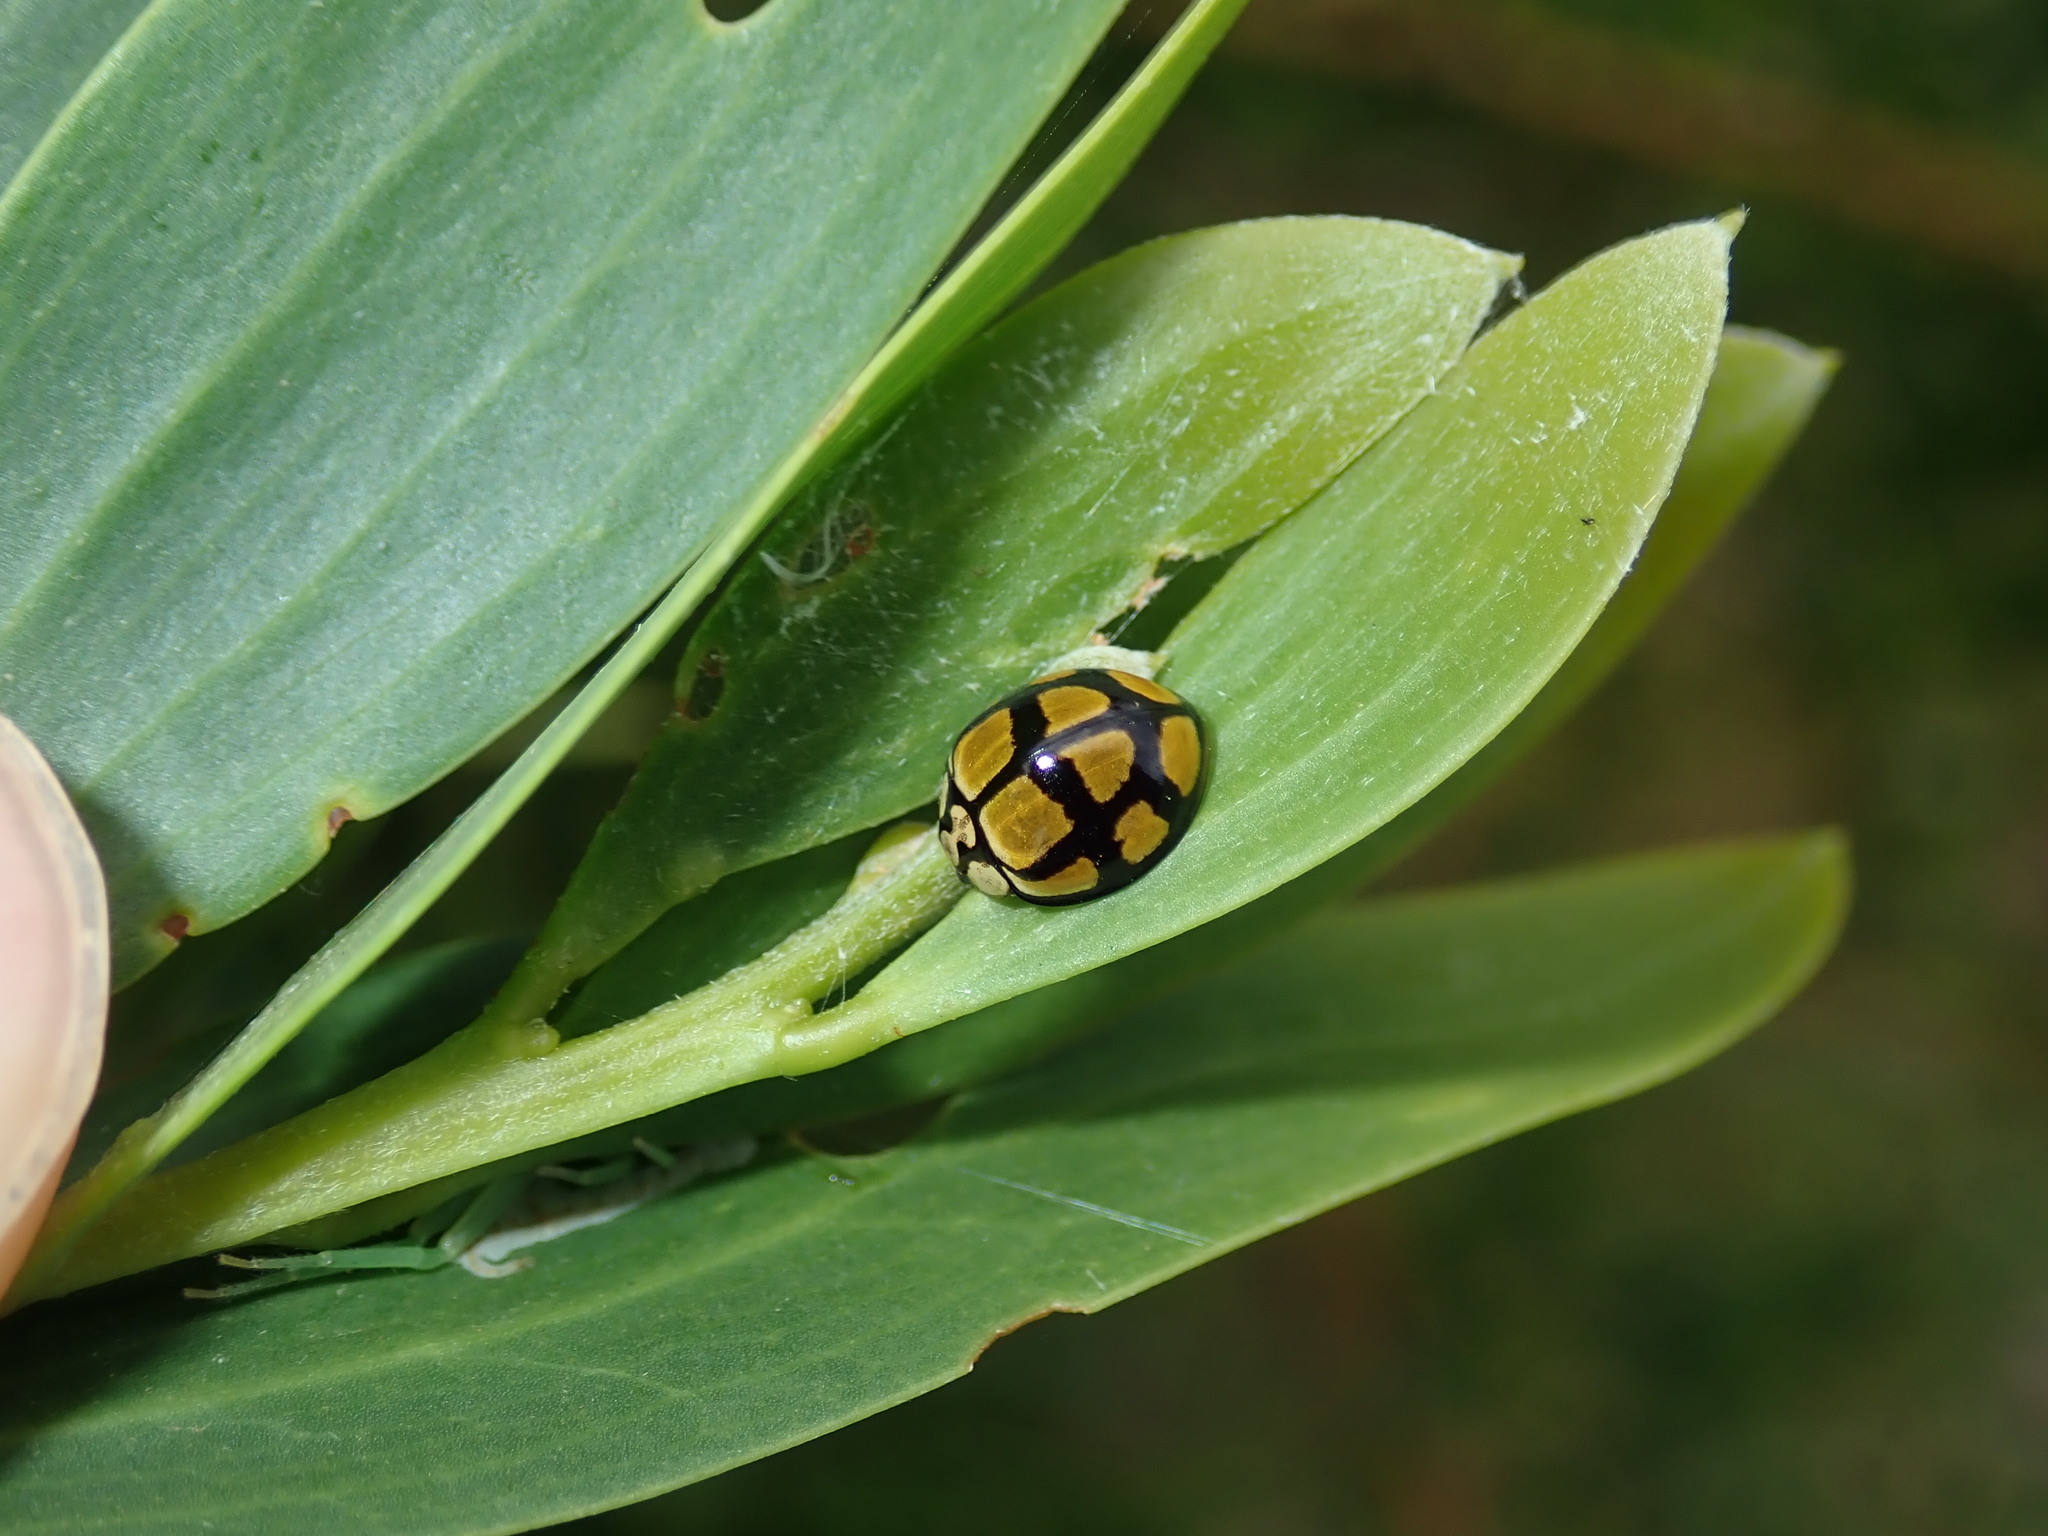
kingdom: Animalia
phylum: Arthropoda
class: Insecta
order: Coleoptera
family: Coccinellidae
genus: Harmonia
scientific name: Harmonia
